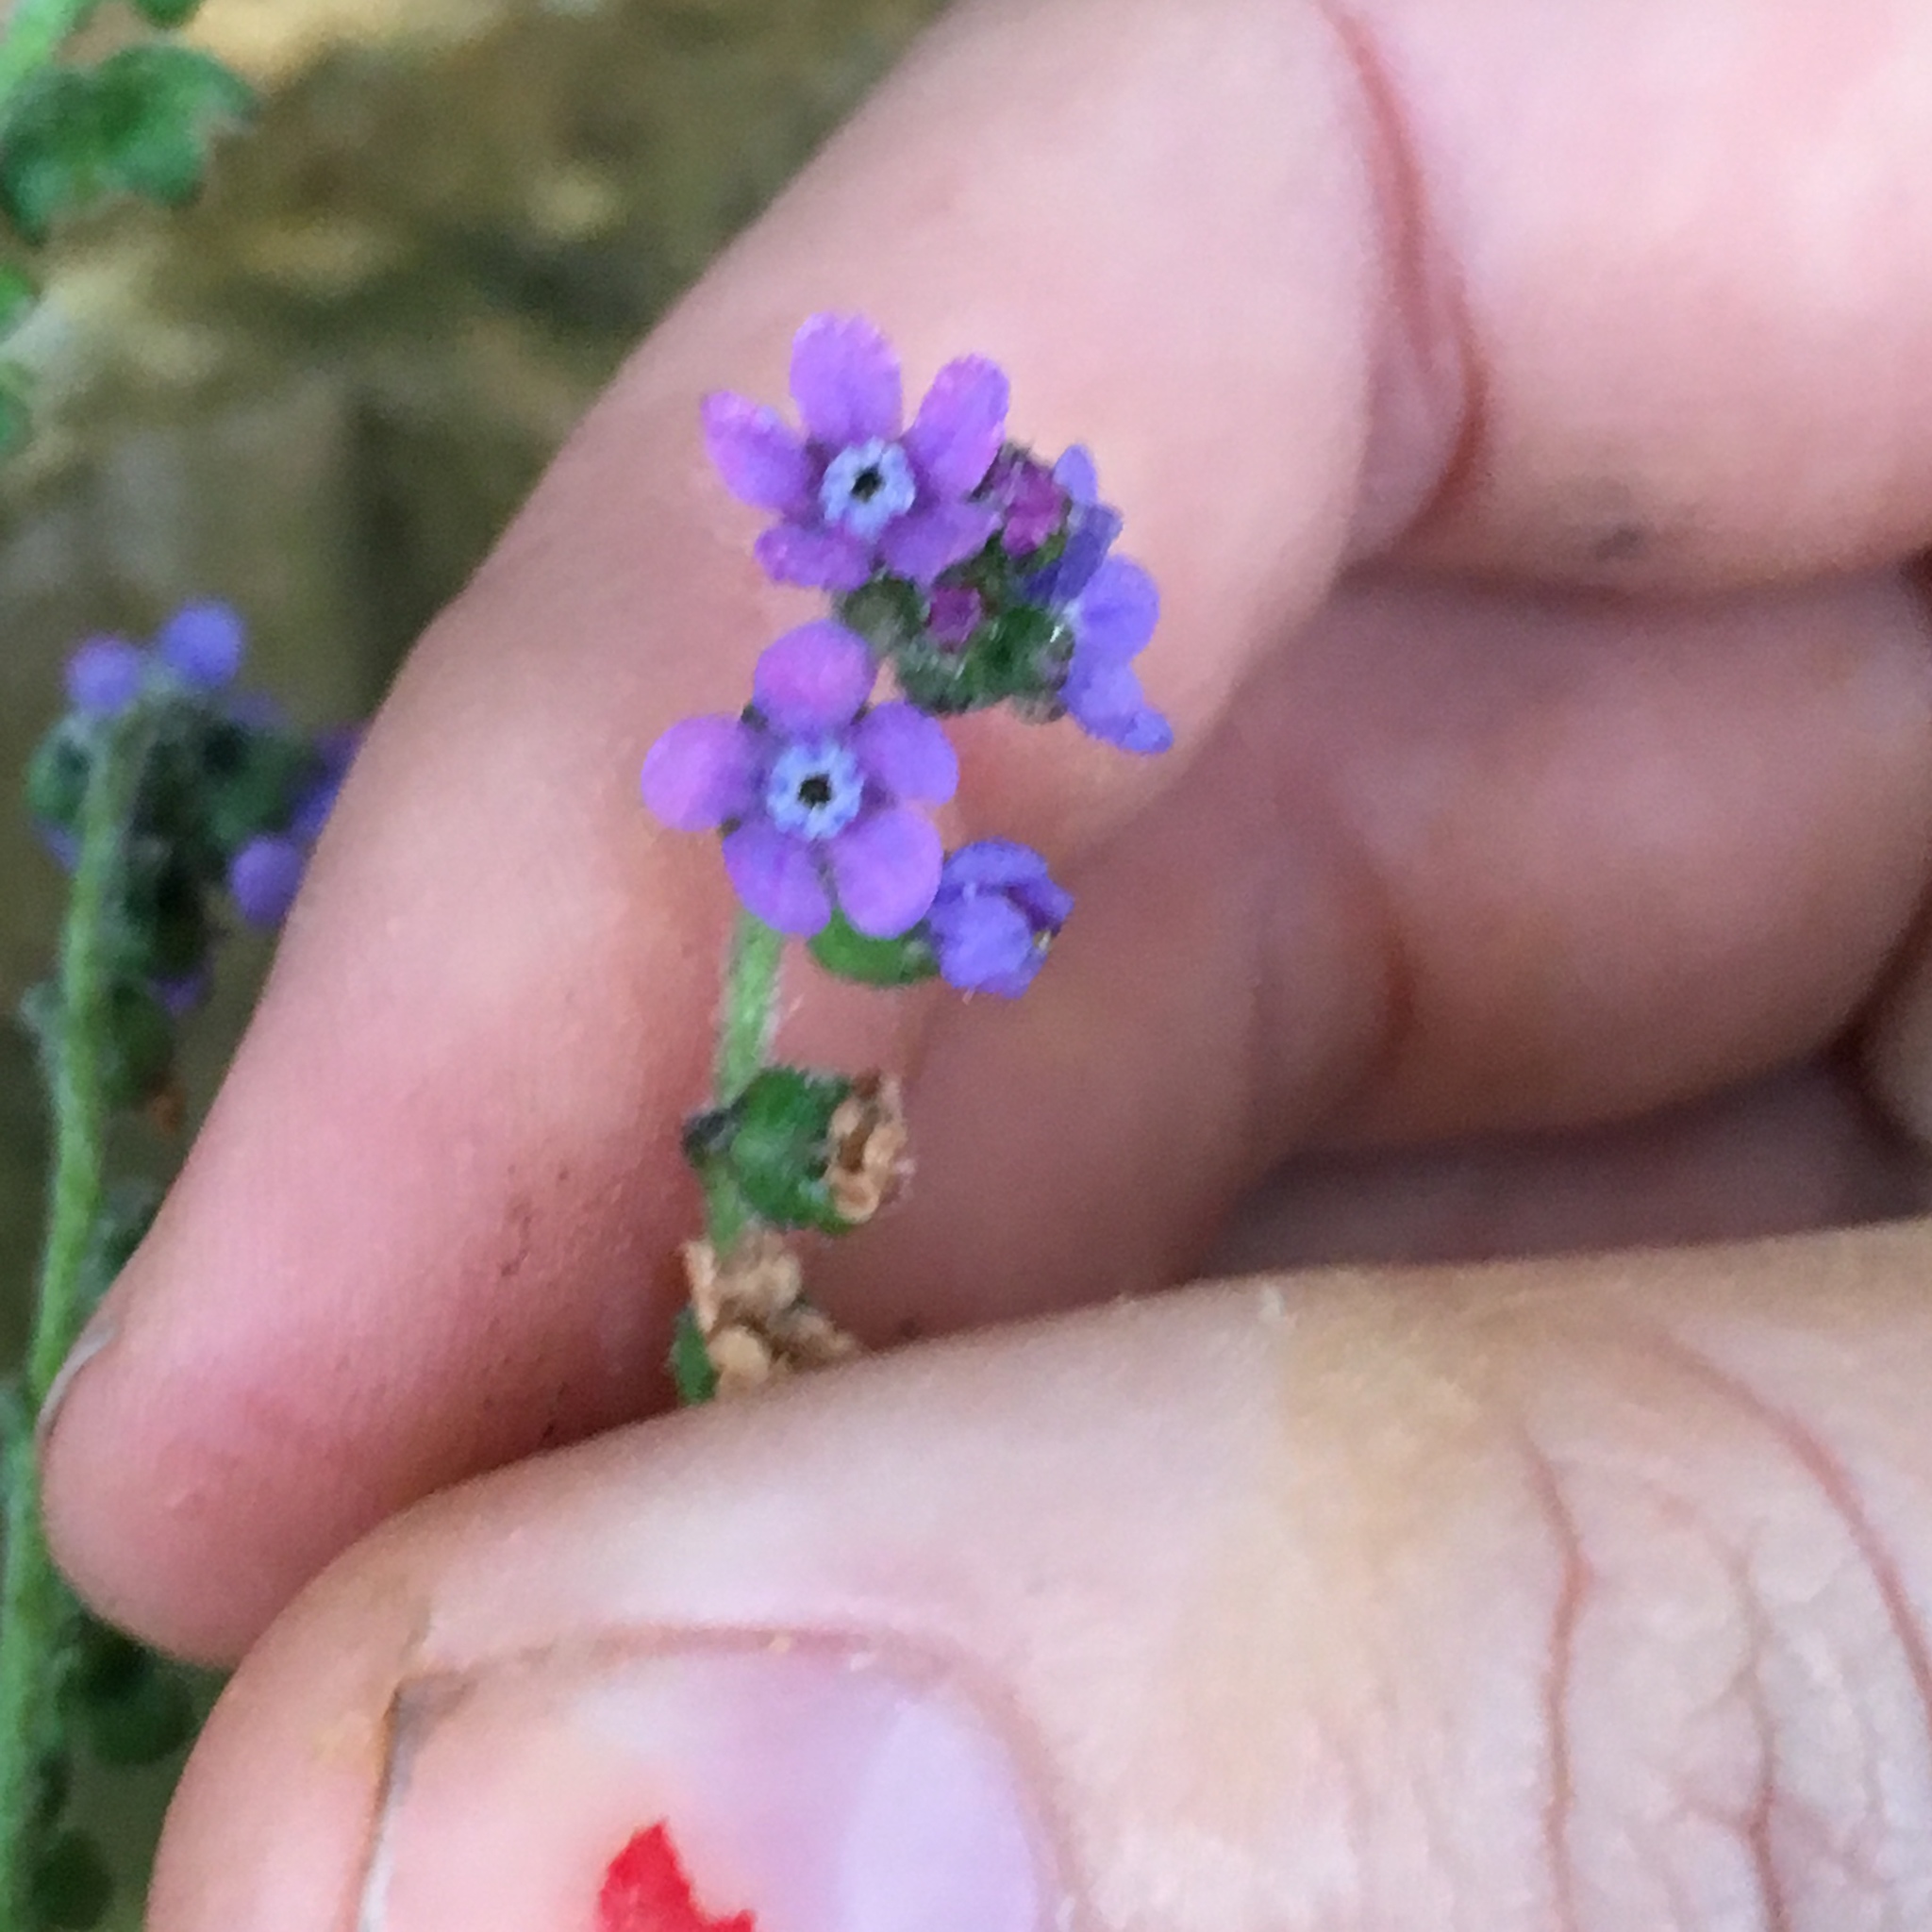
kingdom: Plantae
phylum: Tracheophyta
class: Magnoliopsida
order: Boraginales
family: Boraginaceae
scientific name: Boraginaceae
